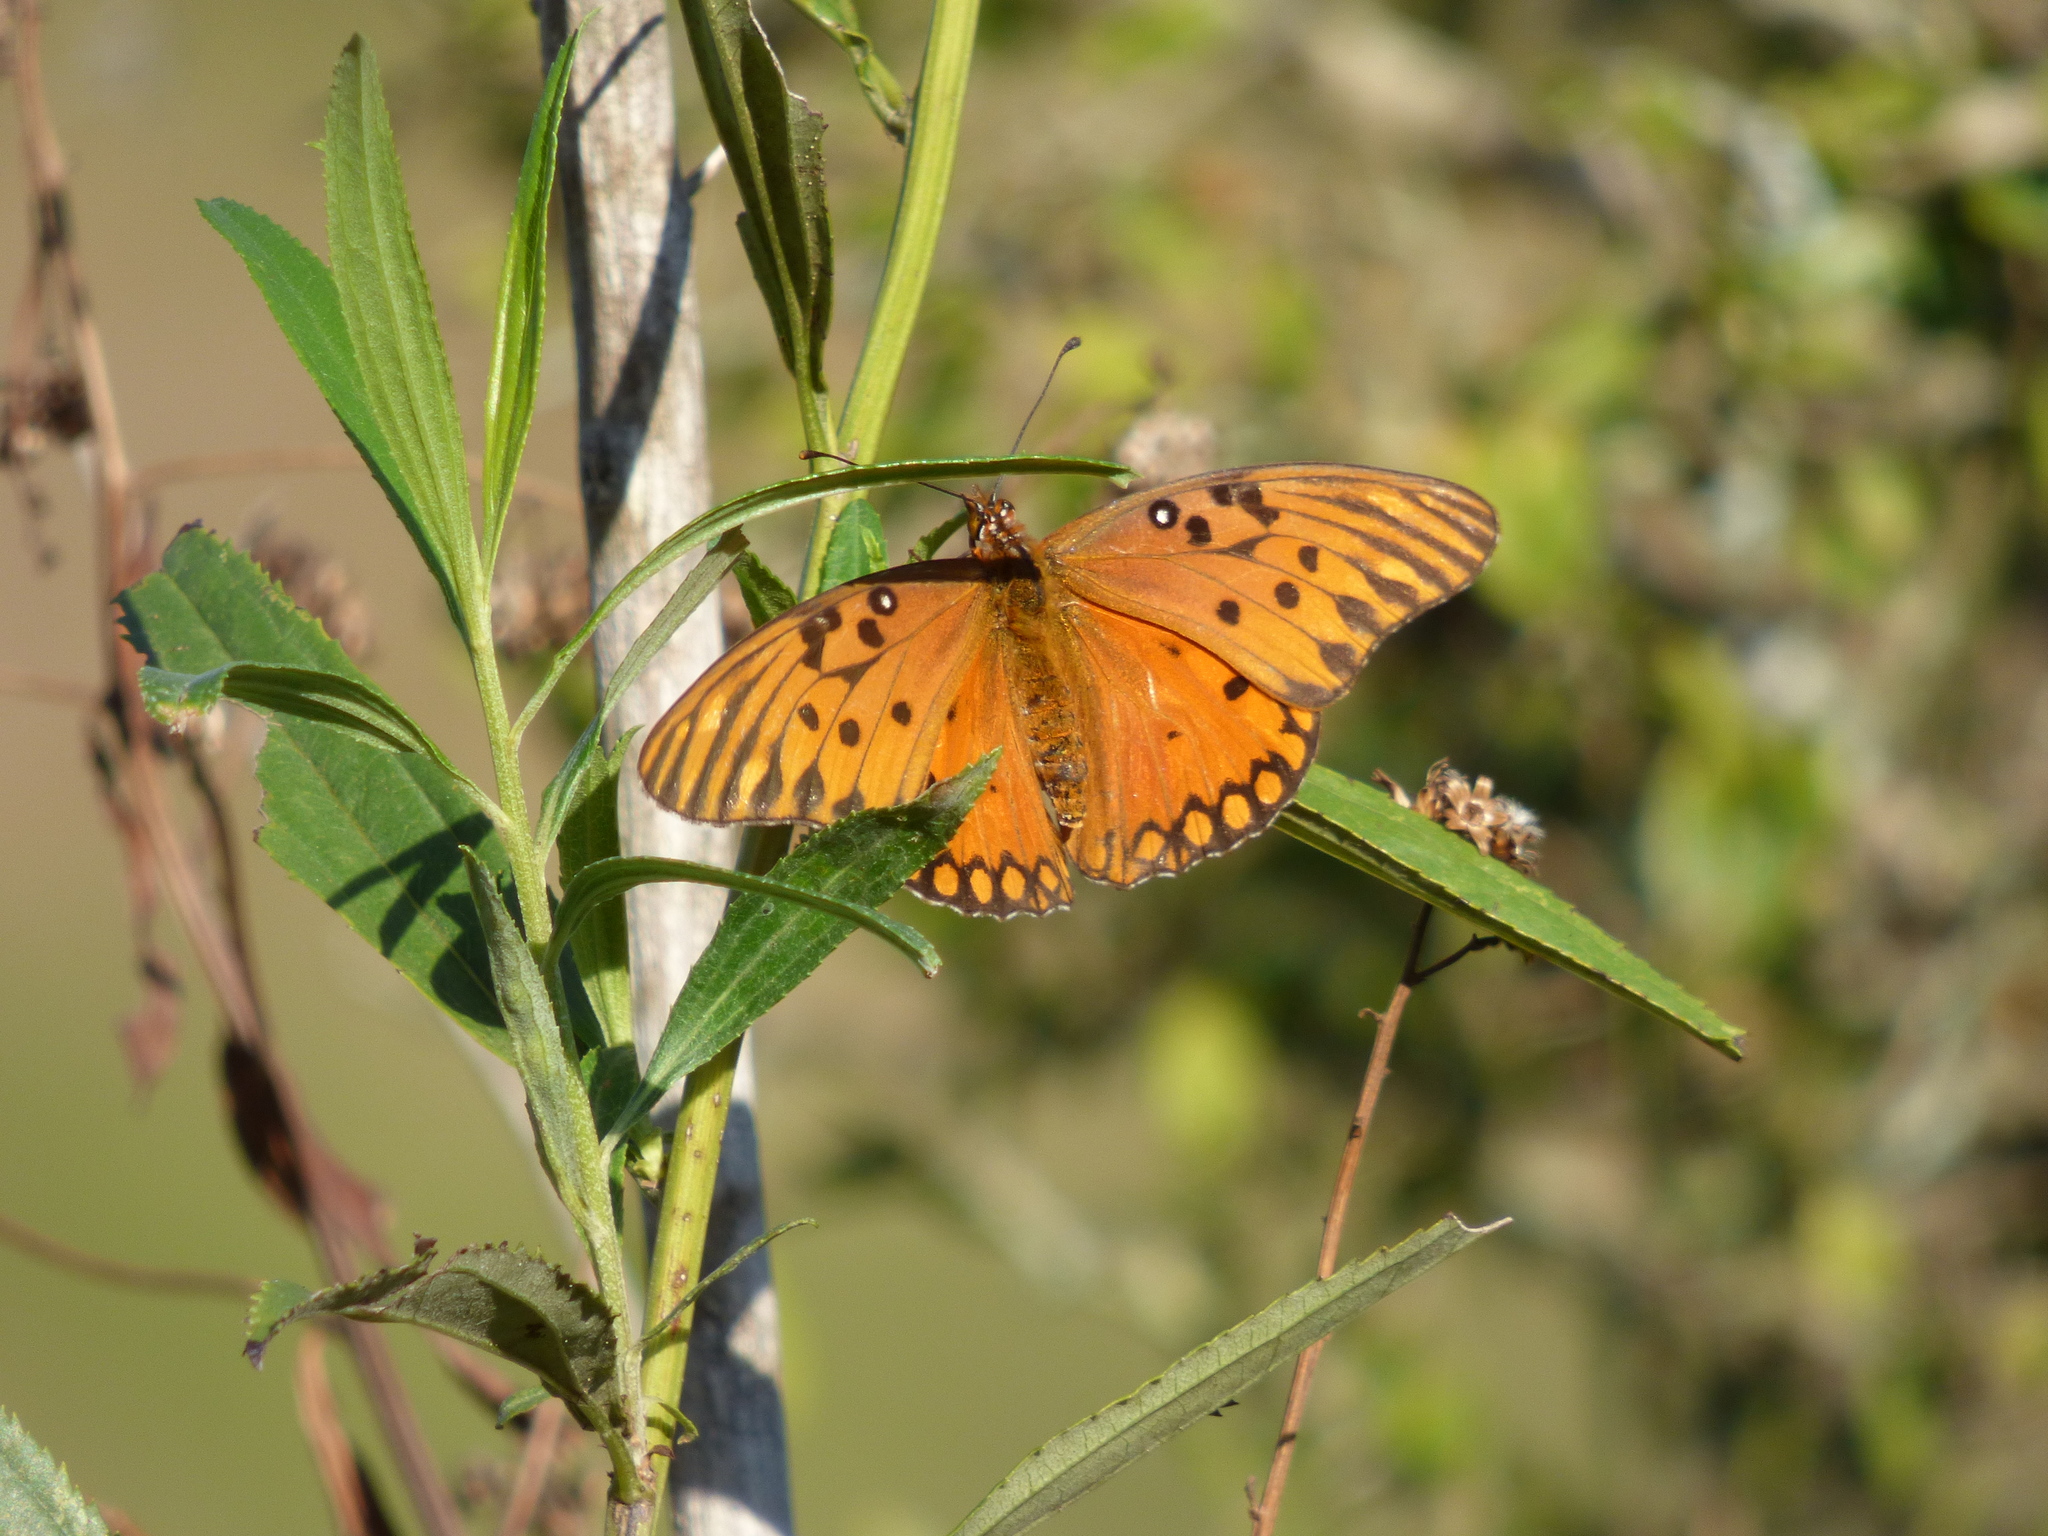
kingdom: Animalia
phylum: Arthropoda
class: Insecta
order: Lepidoptera
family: Nymphalidae
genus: Dione
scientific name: Dione vanillae
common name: Gulf fritillary
